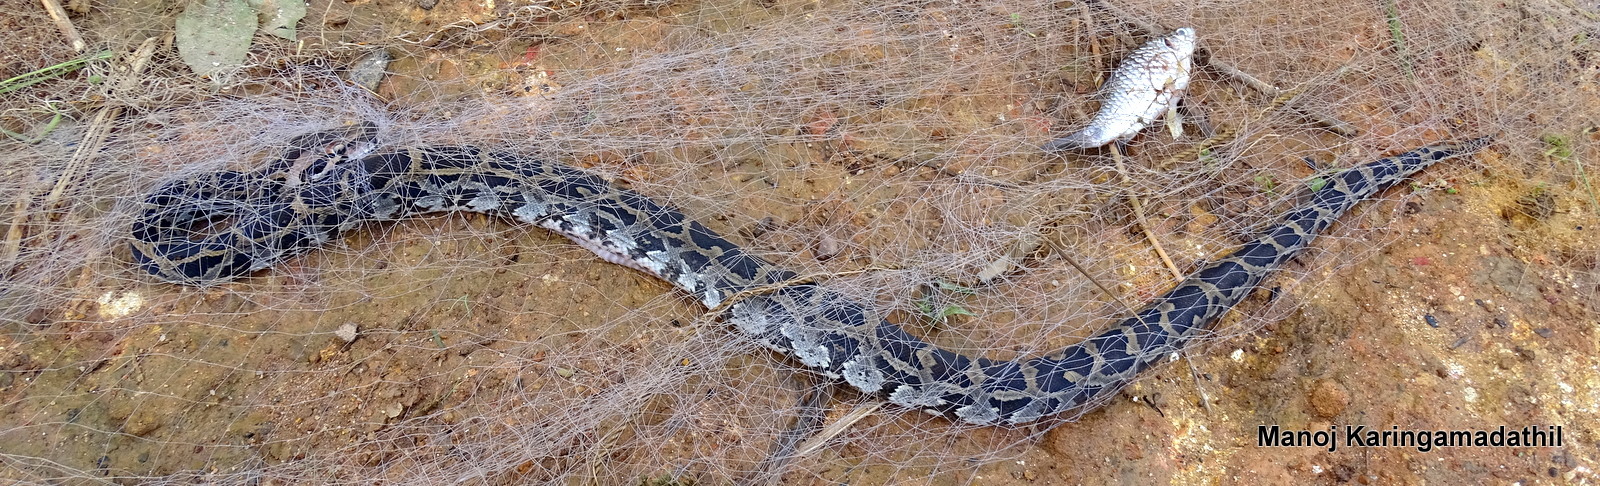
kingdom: Animalia
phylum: Chordata
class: Squamata
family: Pythonidae
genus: Python
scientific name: Python molurus
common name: Indian rock python
